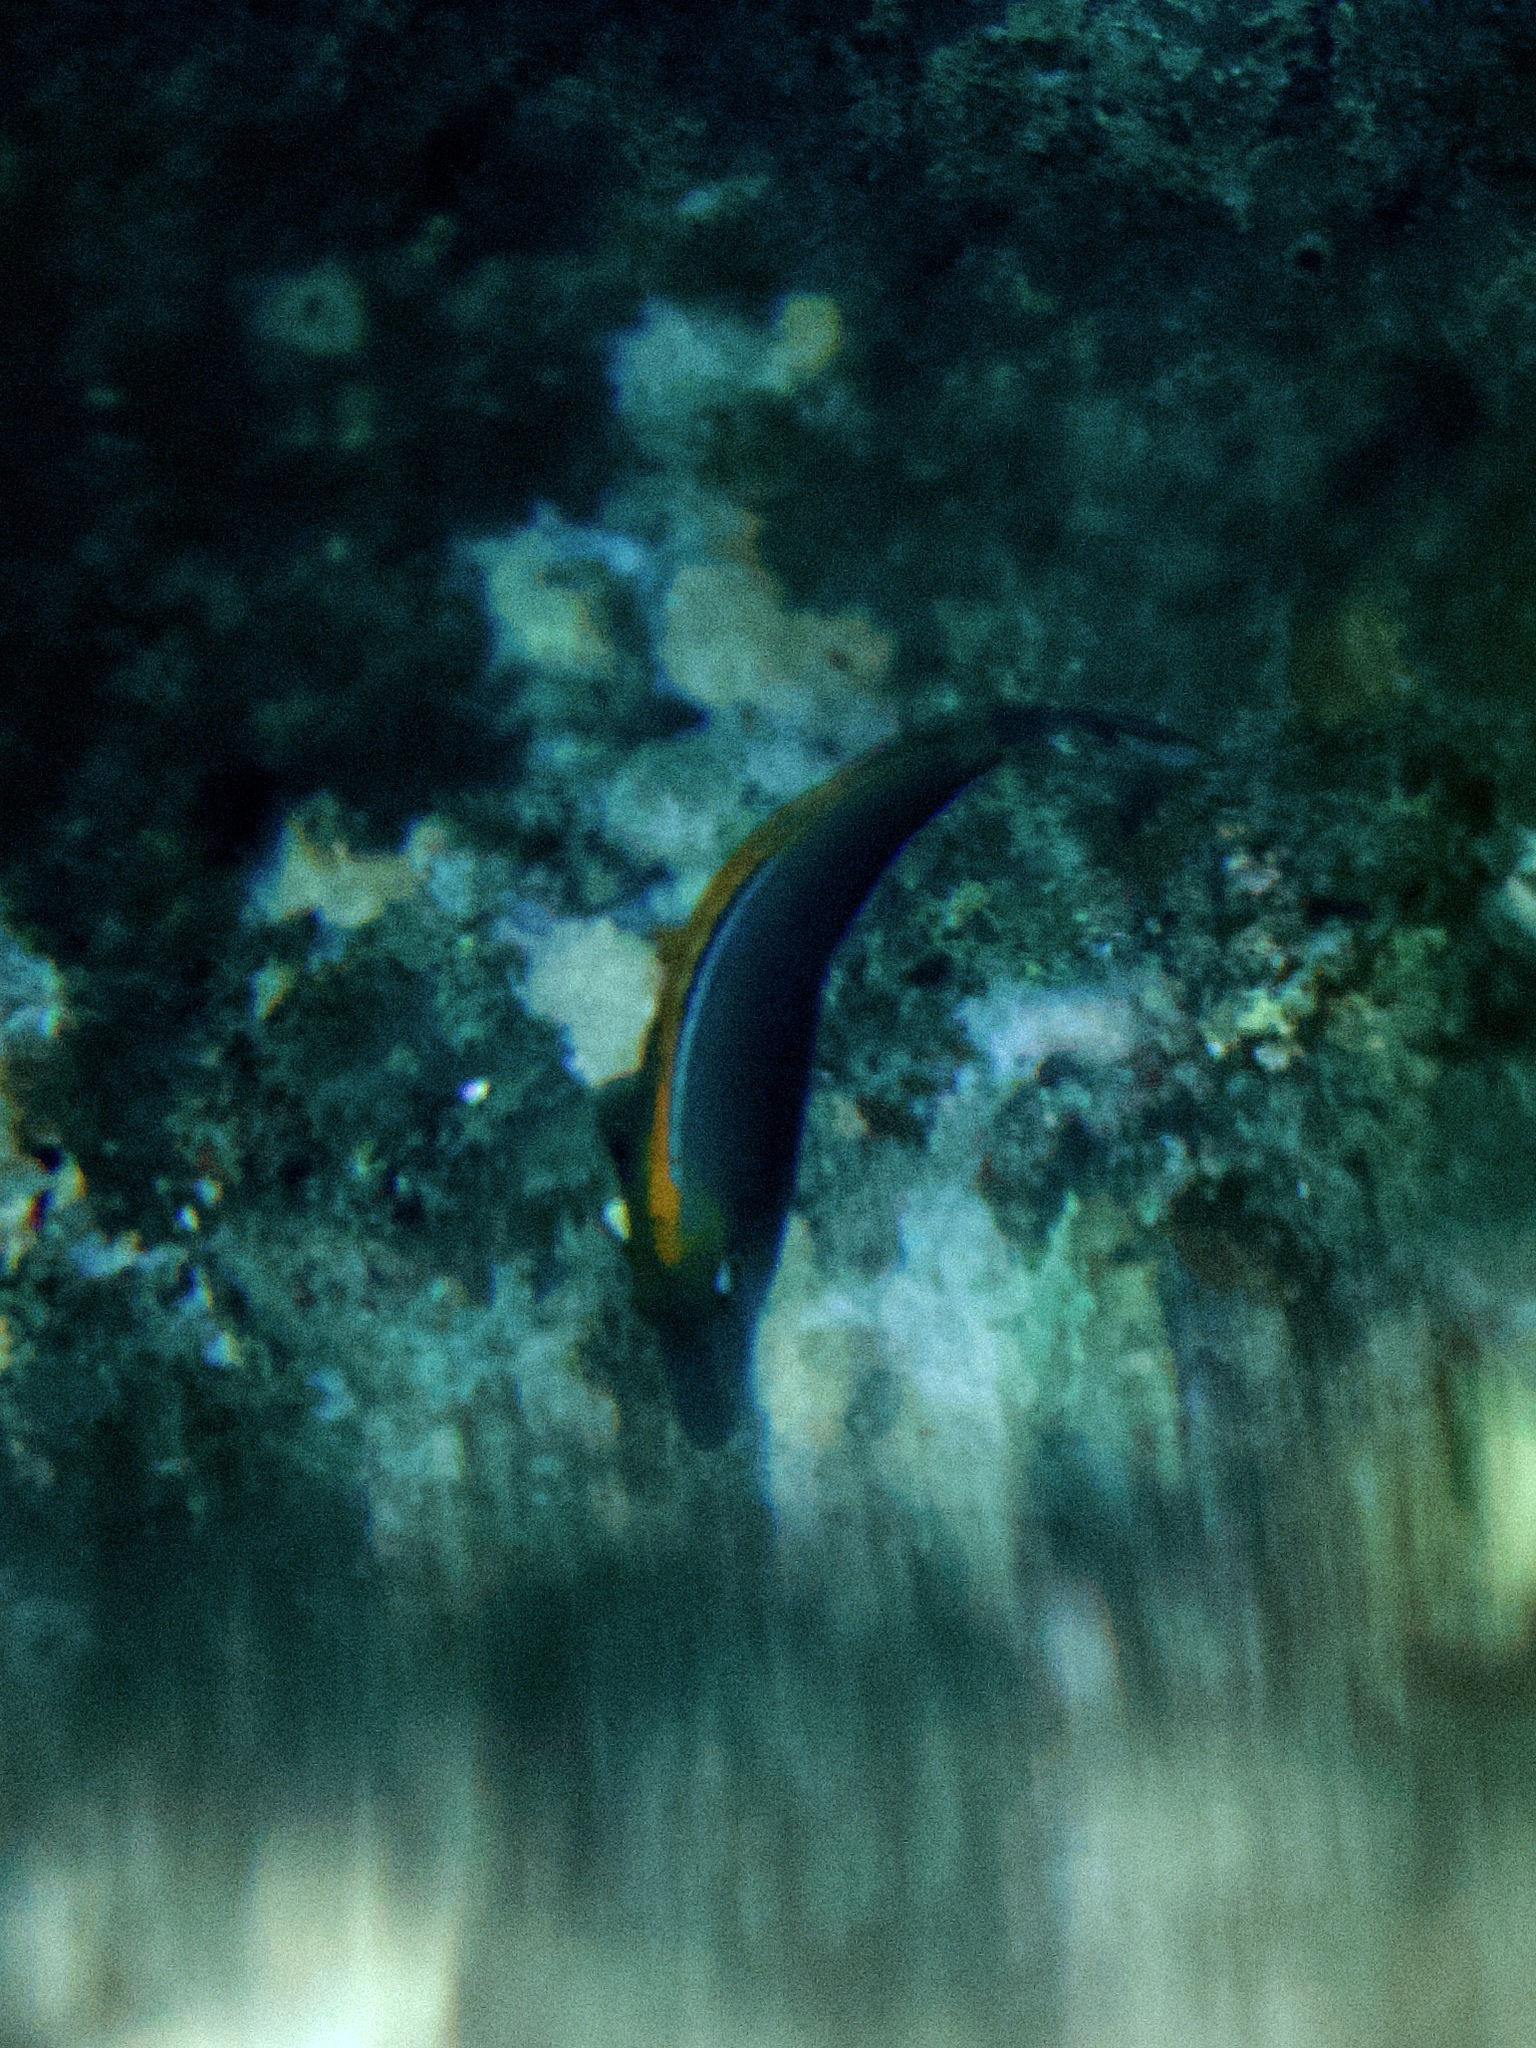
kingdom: Animalia
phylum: Chordata
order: Perciformes
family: Acanthuridae
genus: Naso
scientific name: Naso elegans
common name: Orangespine unicornfish
